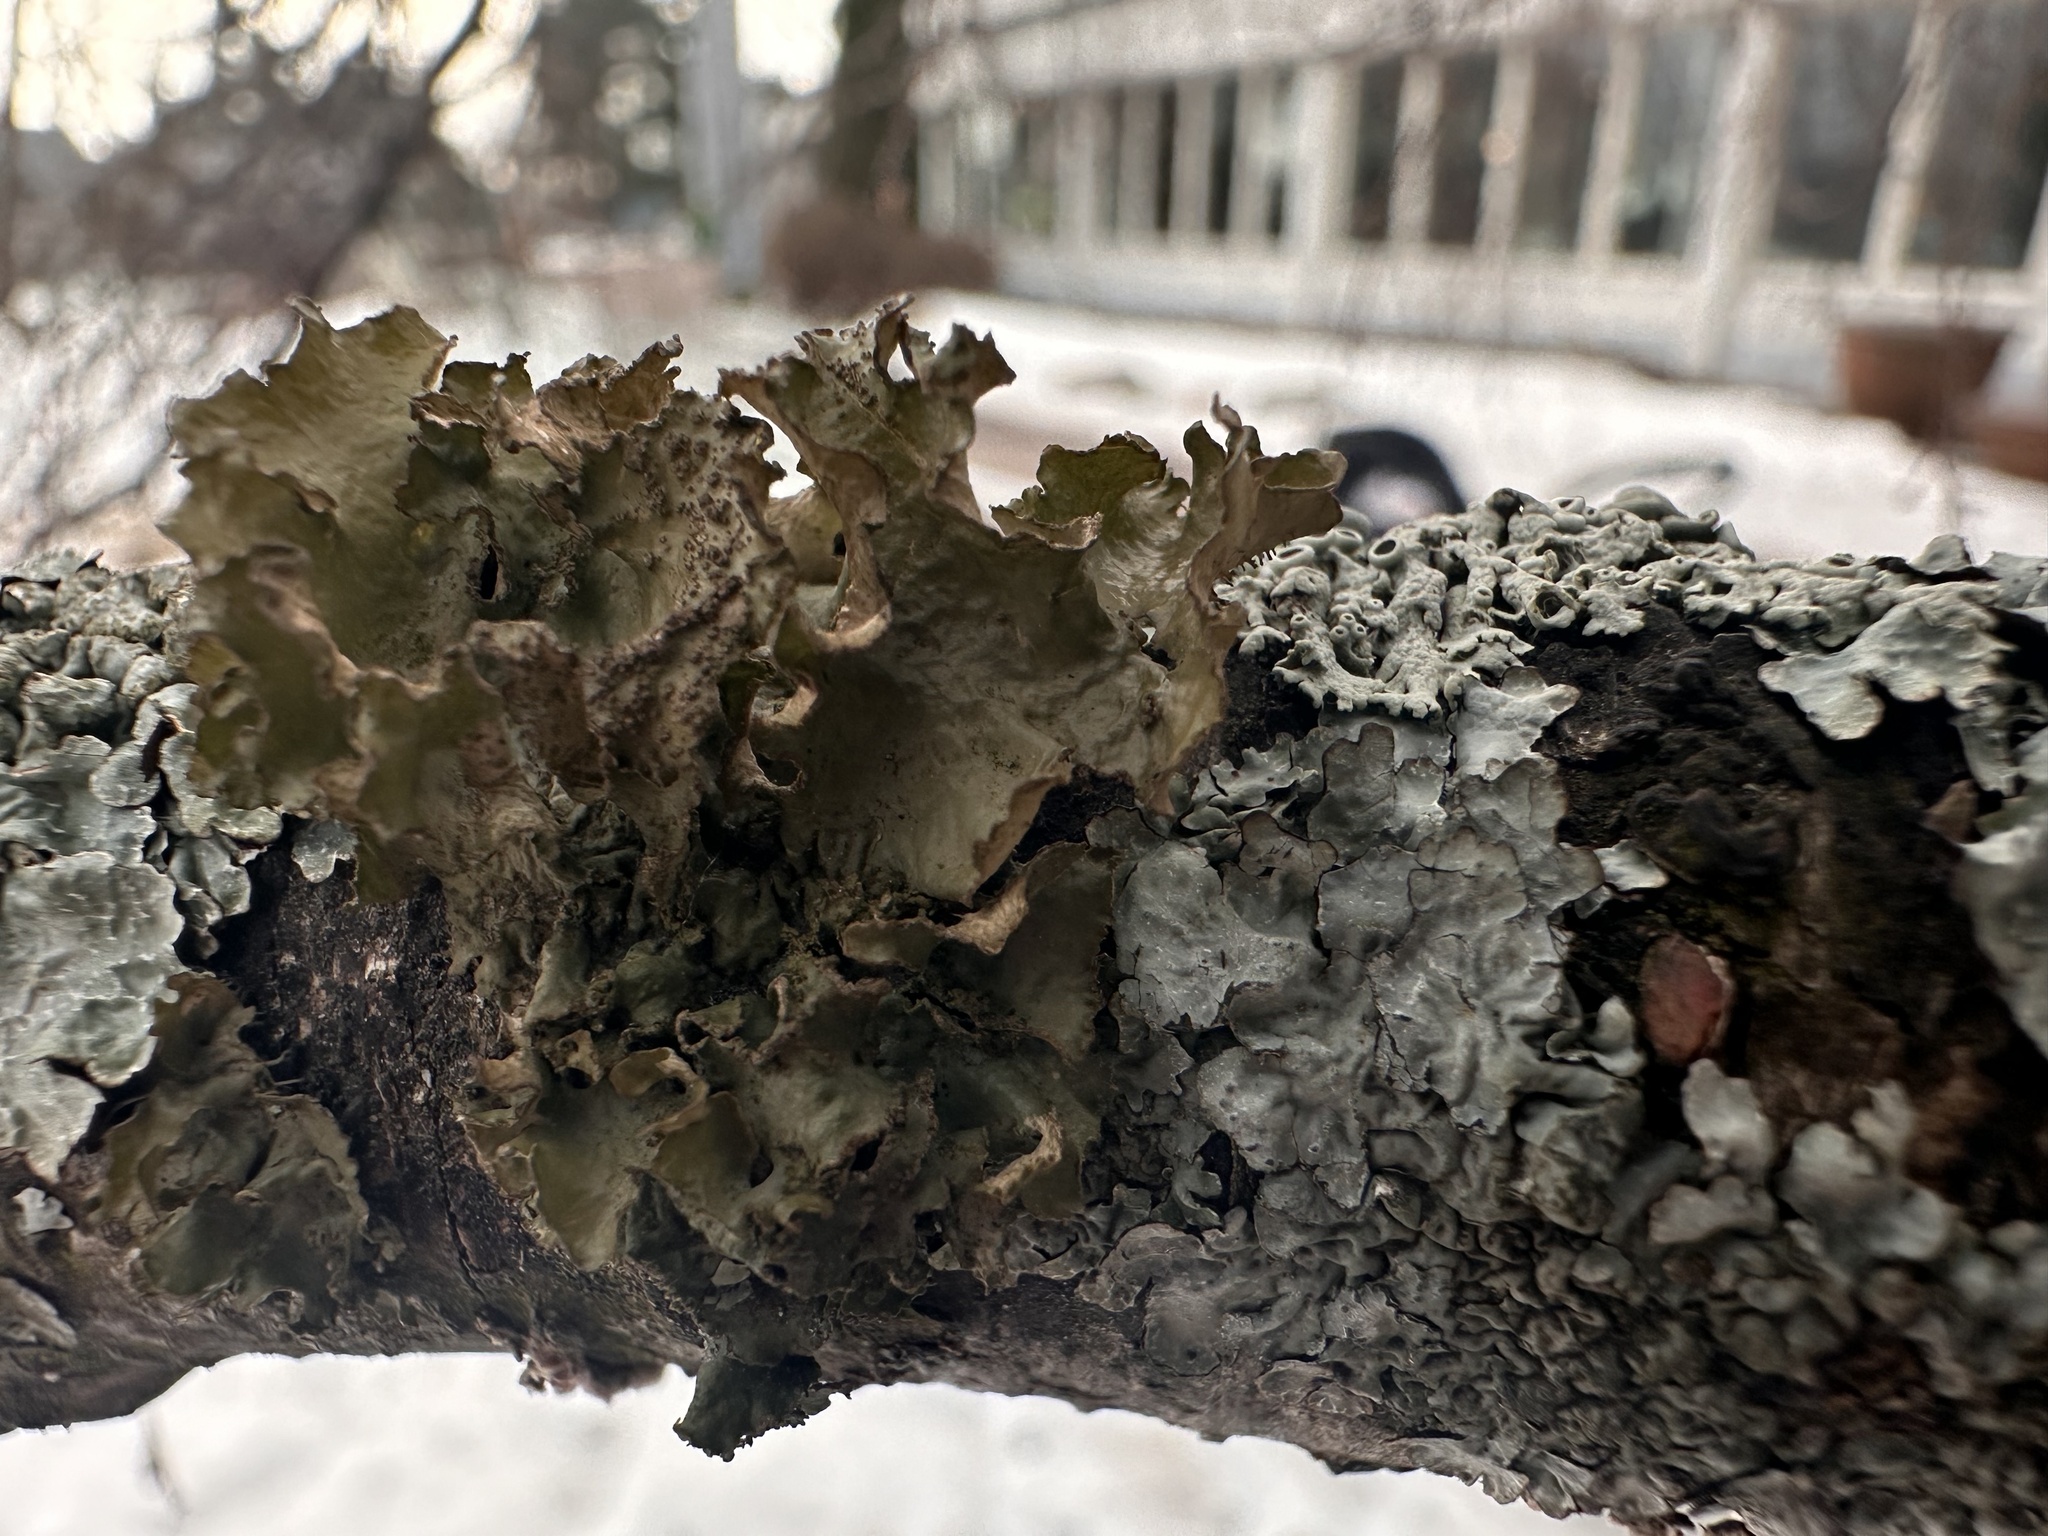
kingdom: Fungi
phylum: Ascomycota
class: Lecanoromycetes
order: Lecanorales
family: Parmeliaceae
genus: Nephromopsis
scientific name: Nephromopsis chlorophylla
